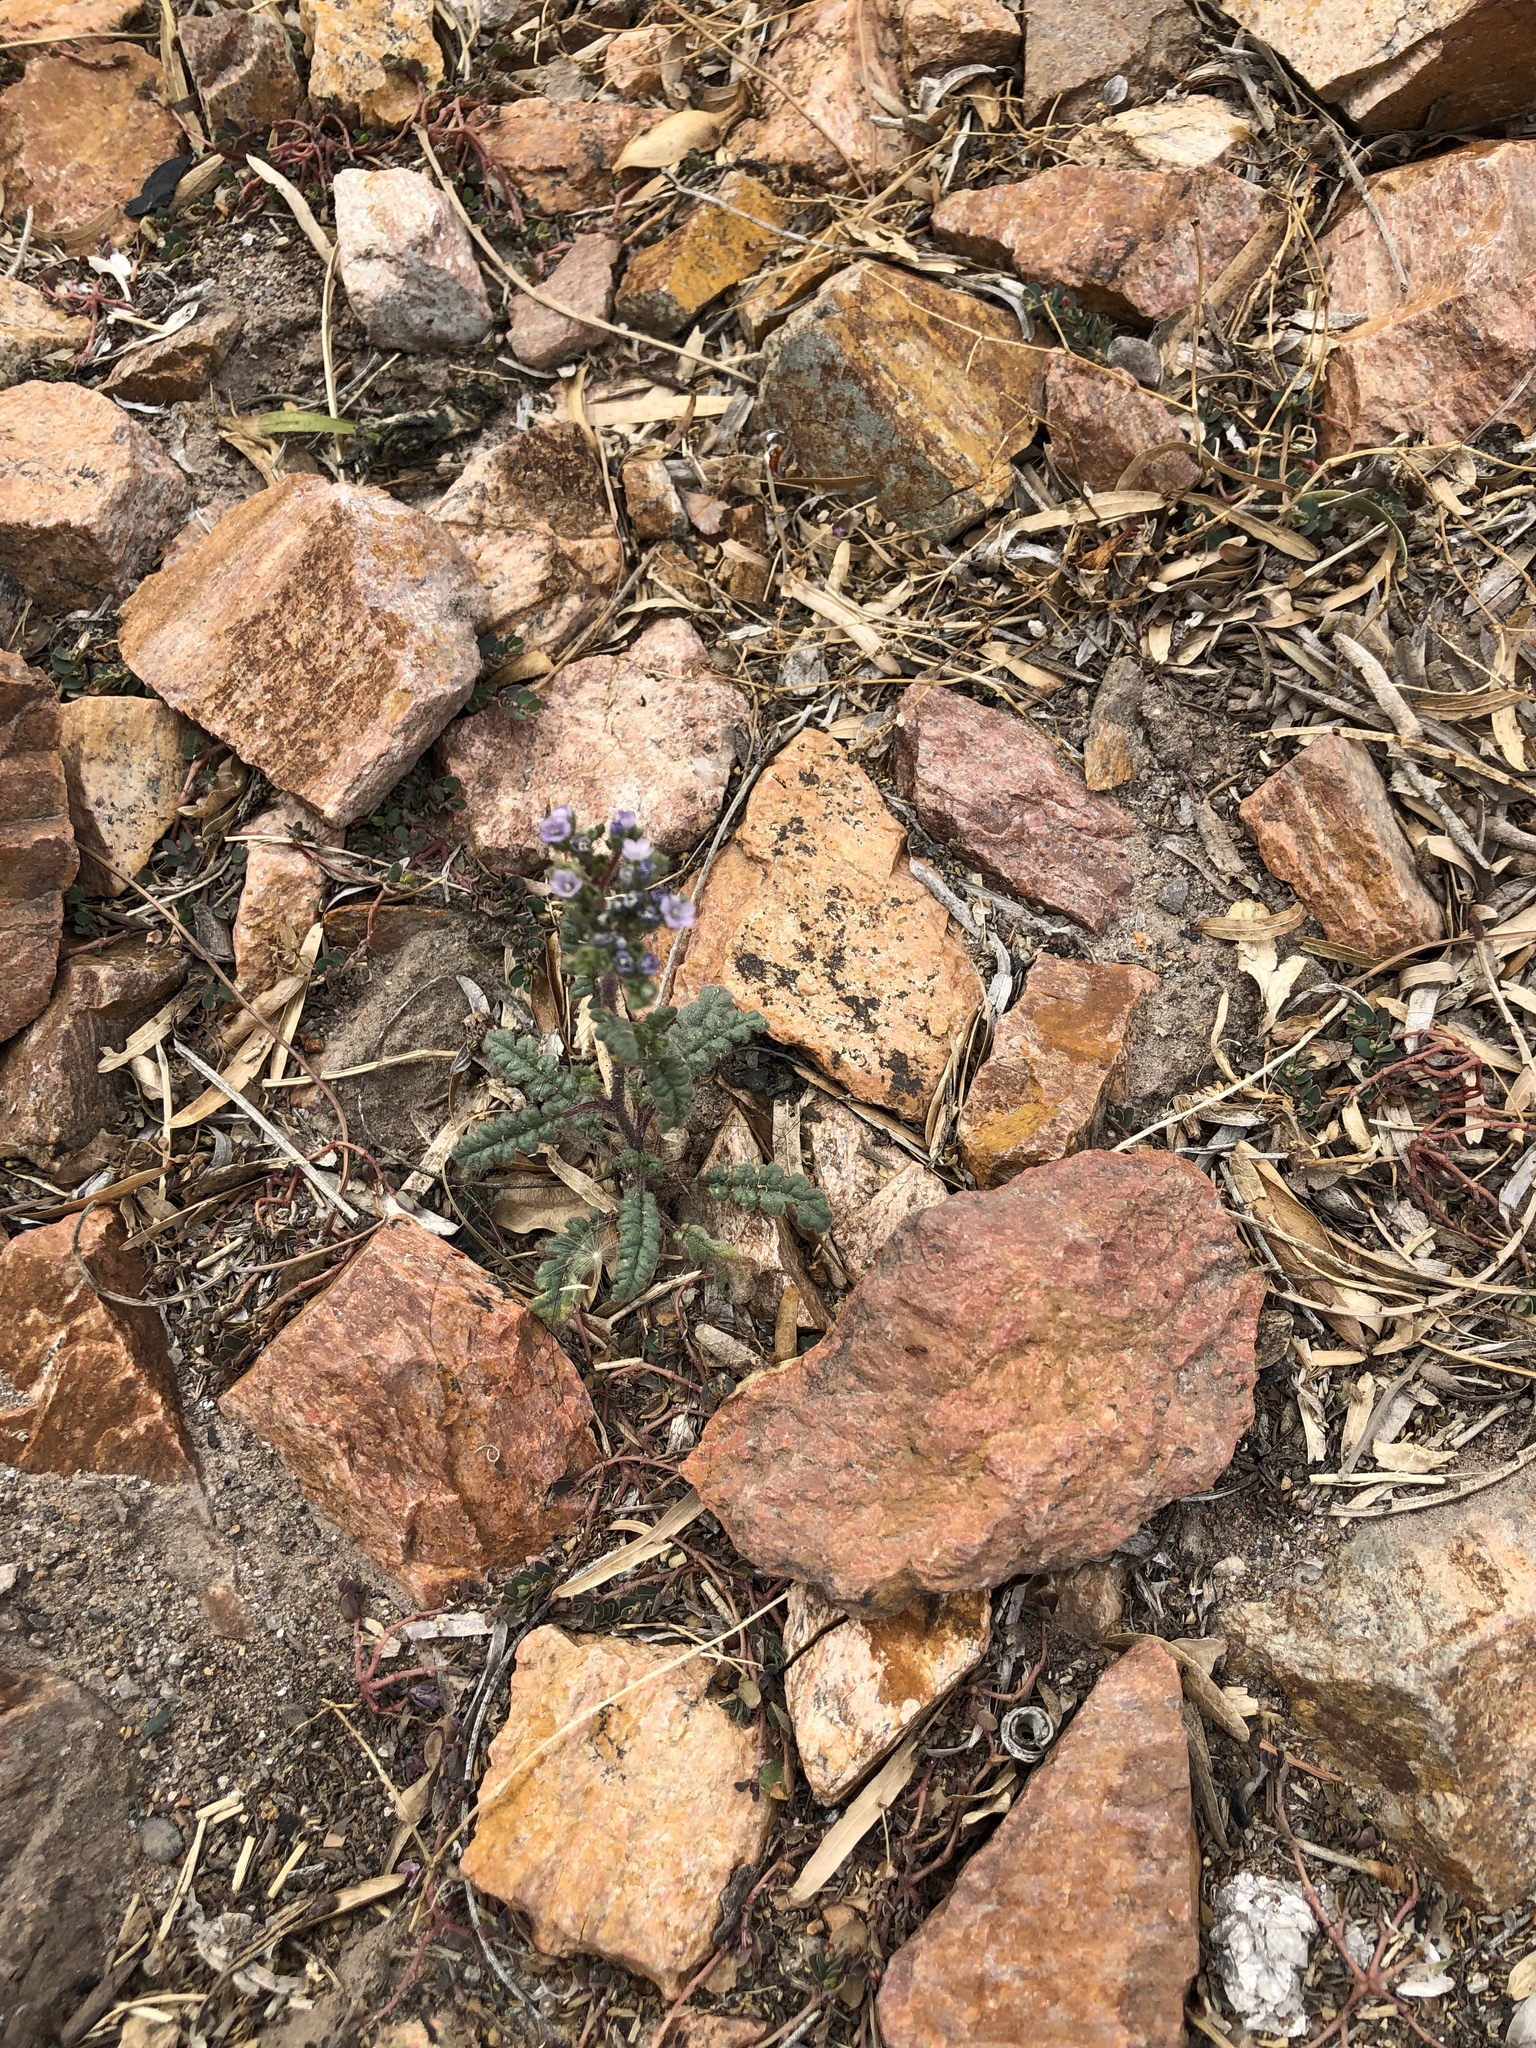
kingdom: Plantae
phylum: Tracheophyta
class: Magnoliopsida
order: Boraginales
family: Hydrophyllaceae
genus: Phacelia
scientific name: Phacelia coerulea
